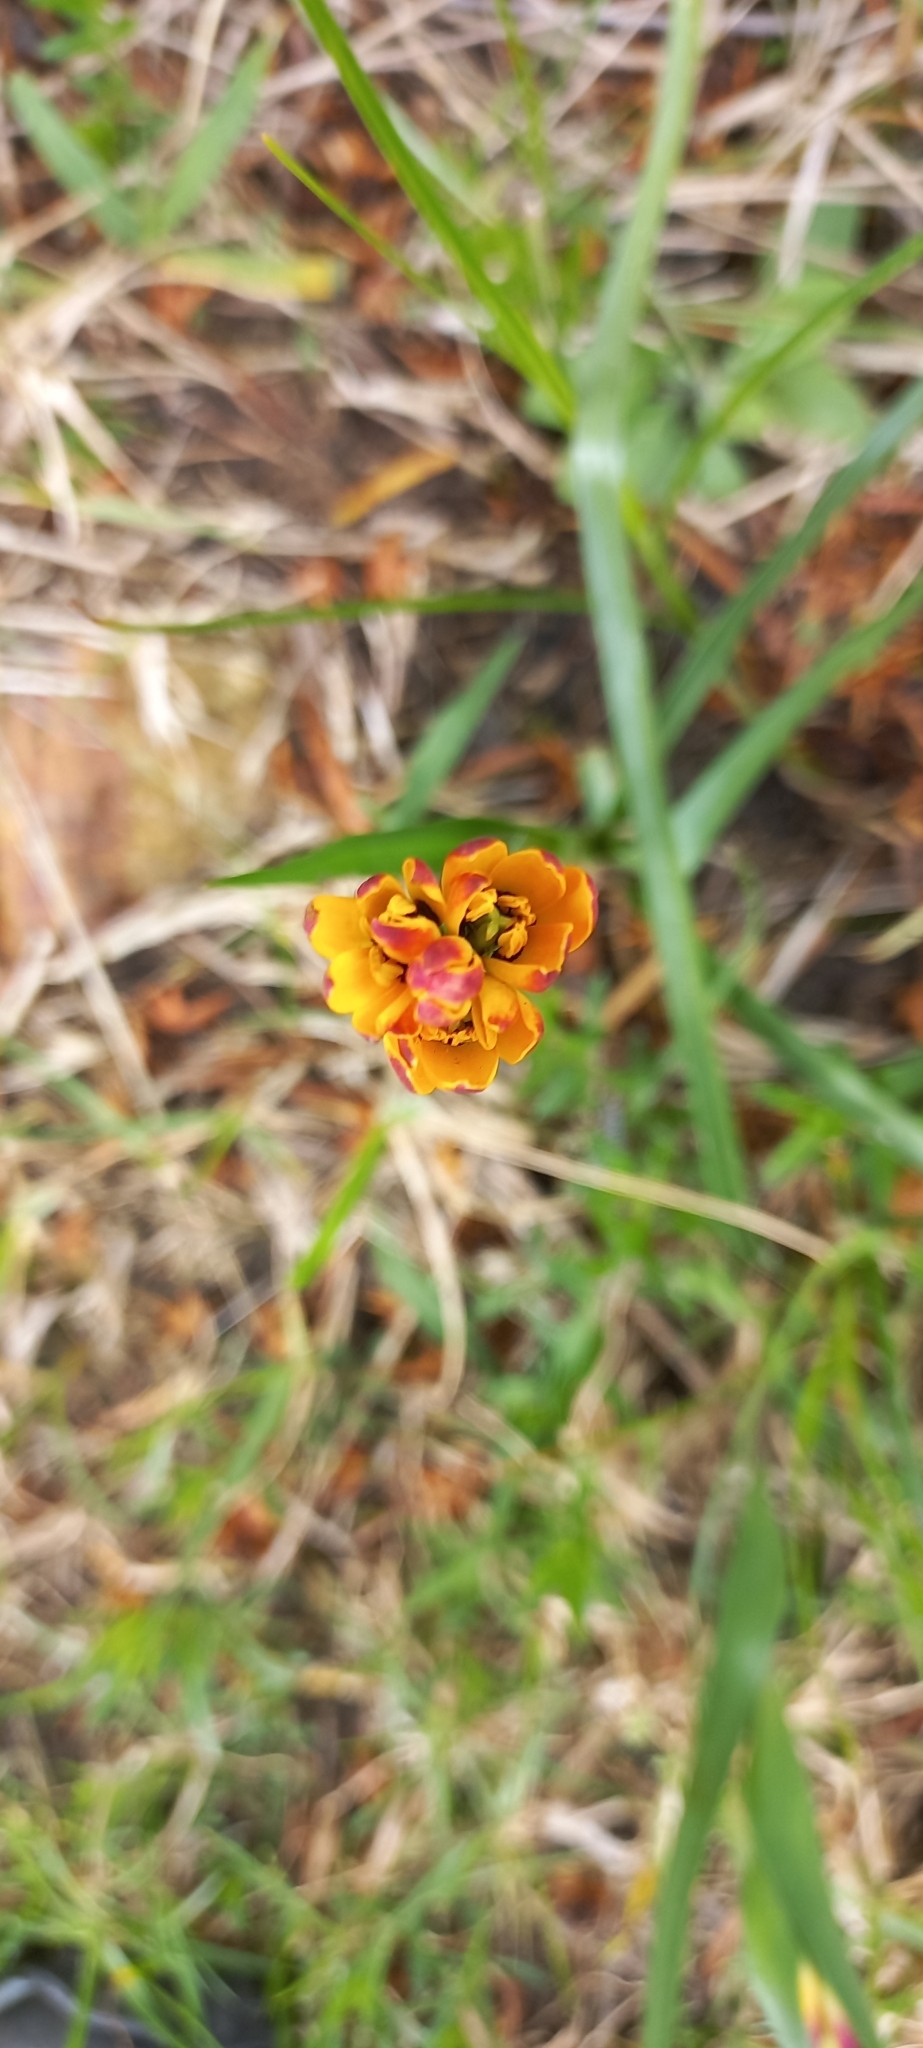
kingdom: Plantae
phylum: Tracheophyta
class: Liliopsida
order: Liliales
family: Colchicaceae
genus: Baeometra
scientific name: Baeometra uniflora
